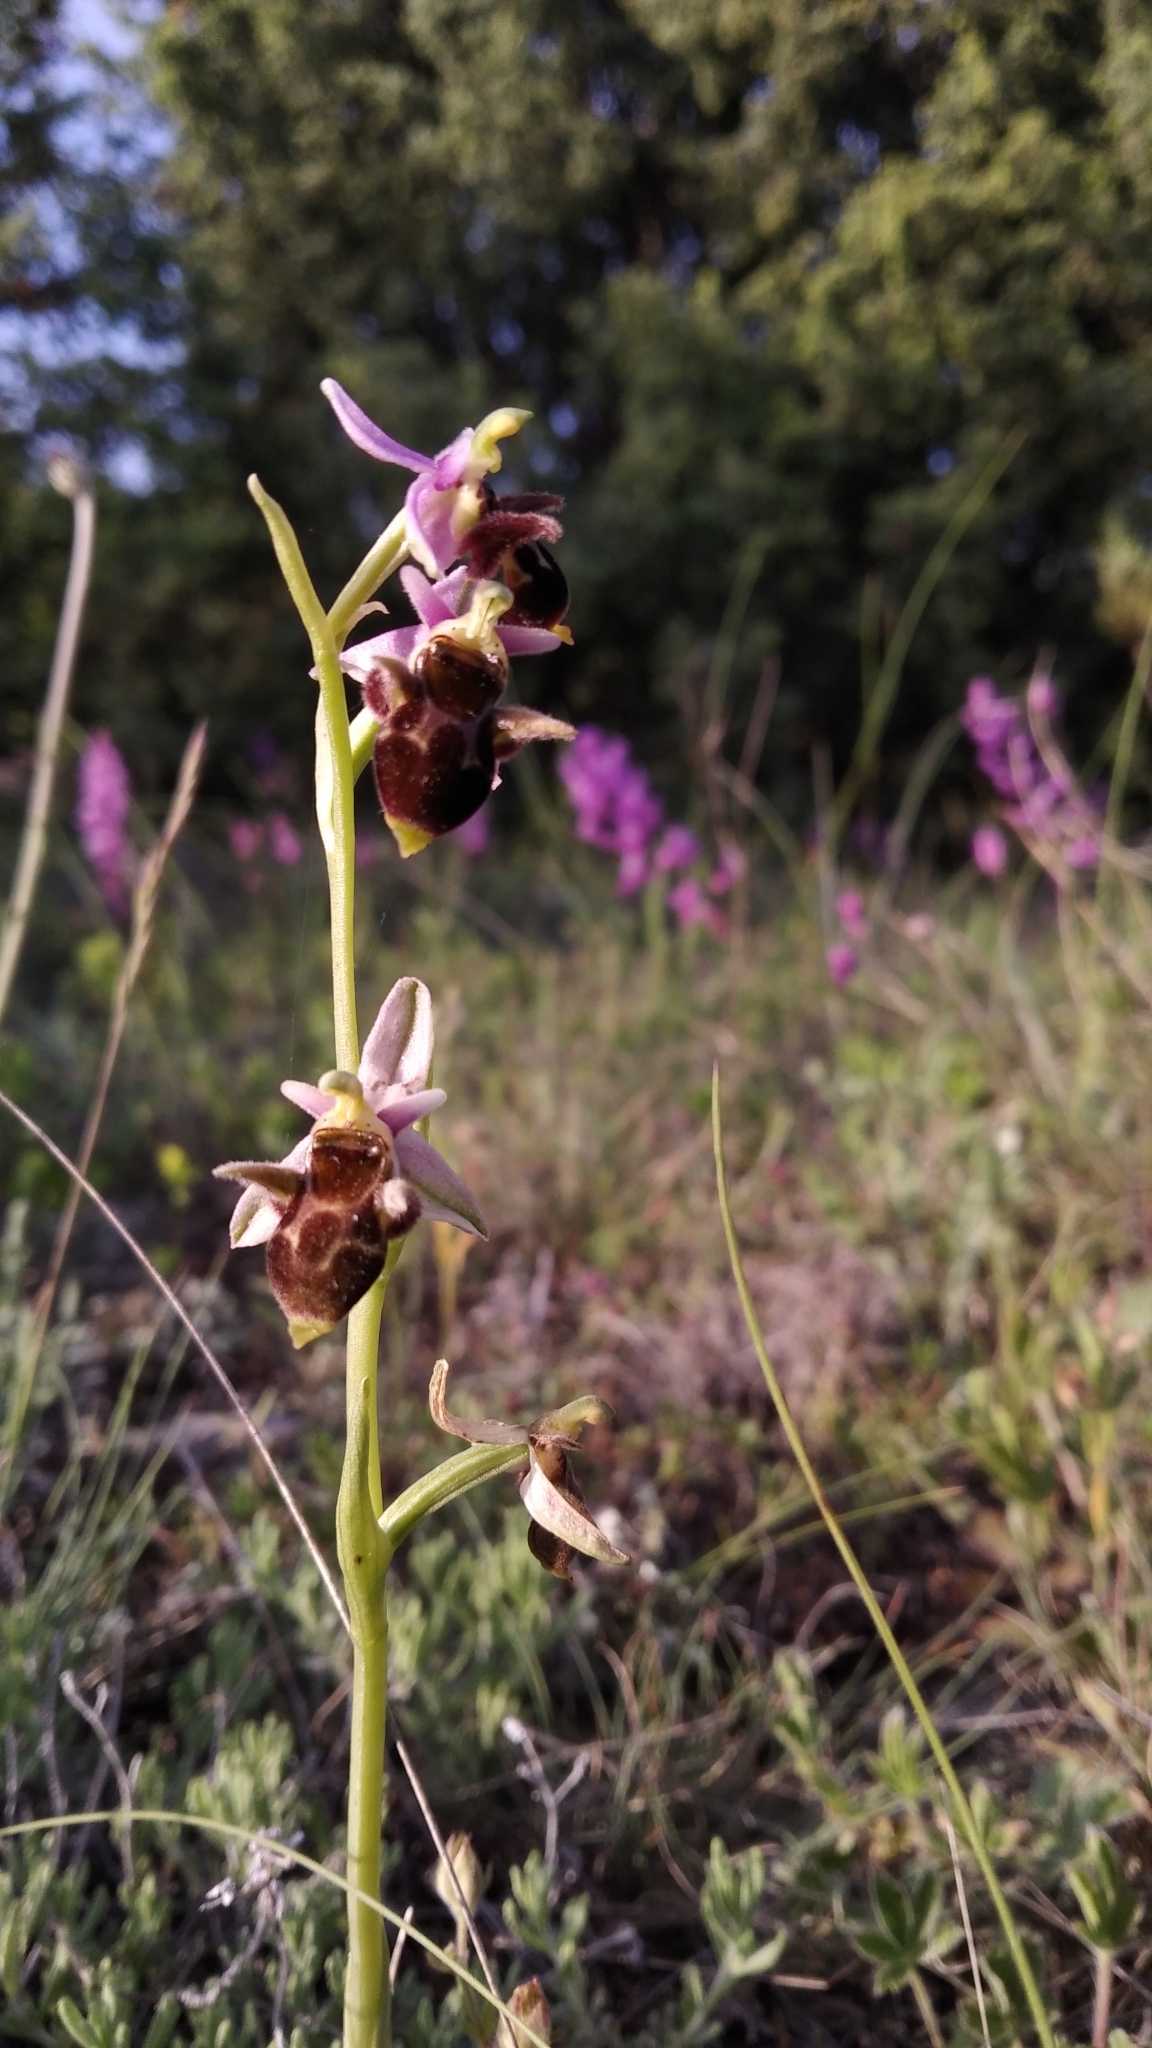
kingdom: Plantae
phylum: Tracheophyta
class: Liliopsida
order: Asparagales
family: Orchidaceae
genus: Ophrys
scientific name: Ophrys
